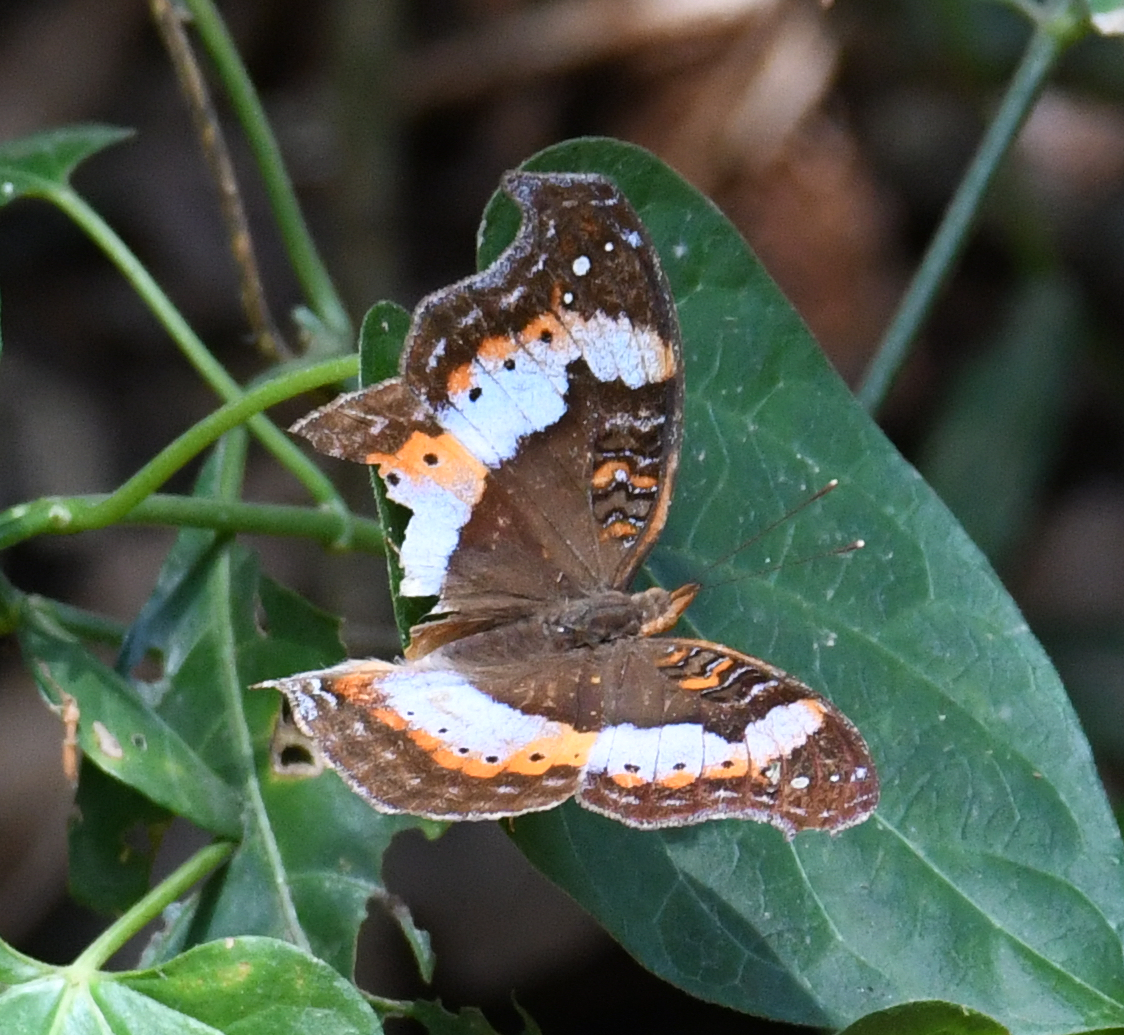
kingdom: Animalia
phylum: Arthropoda
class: Insecta
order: Lepidoptera
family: Nymphalidae
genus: Precis
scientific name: Precis pelarga
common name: Fashion commodore
